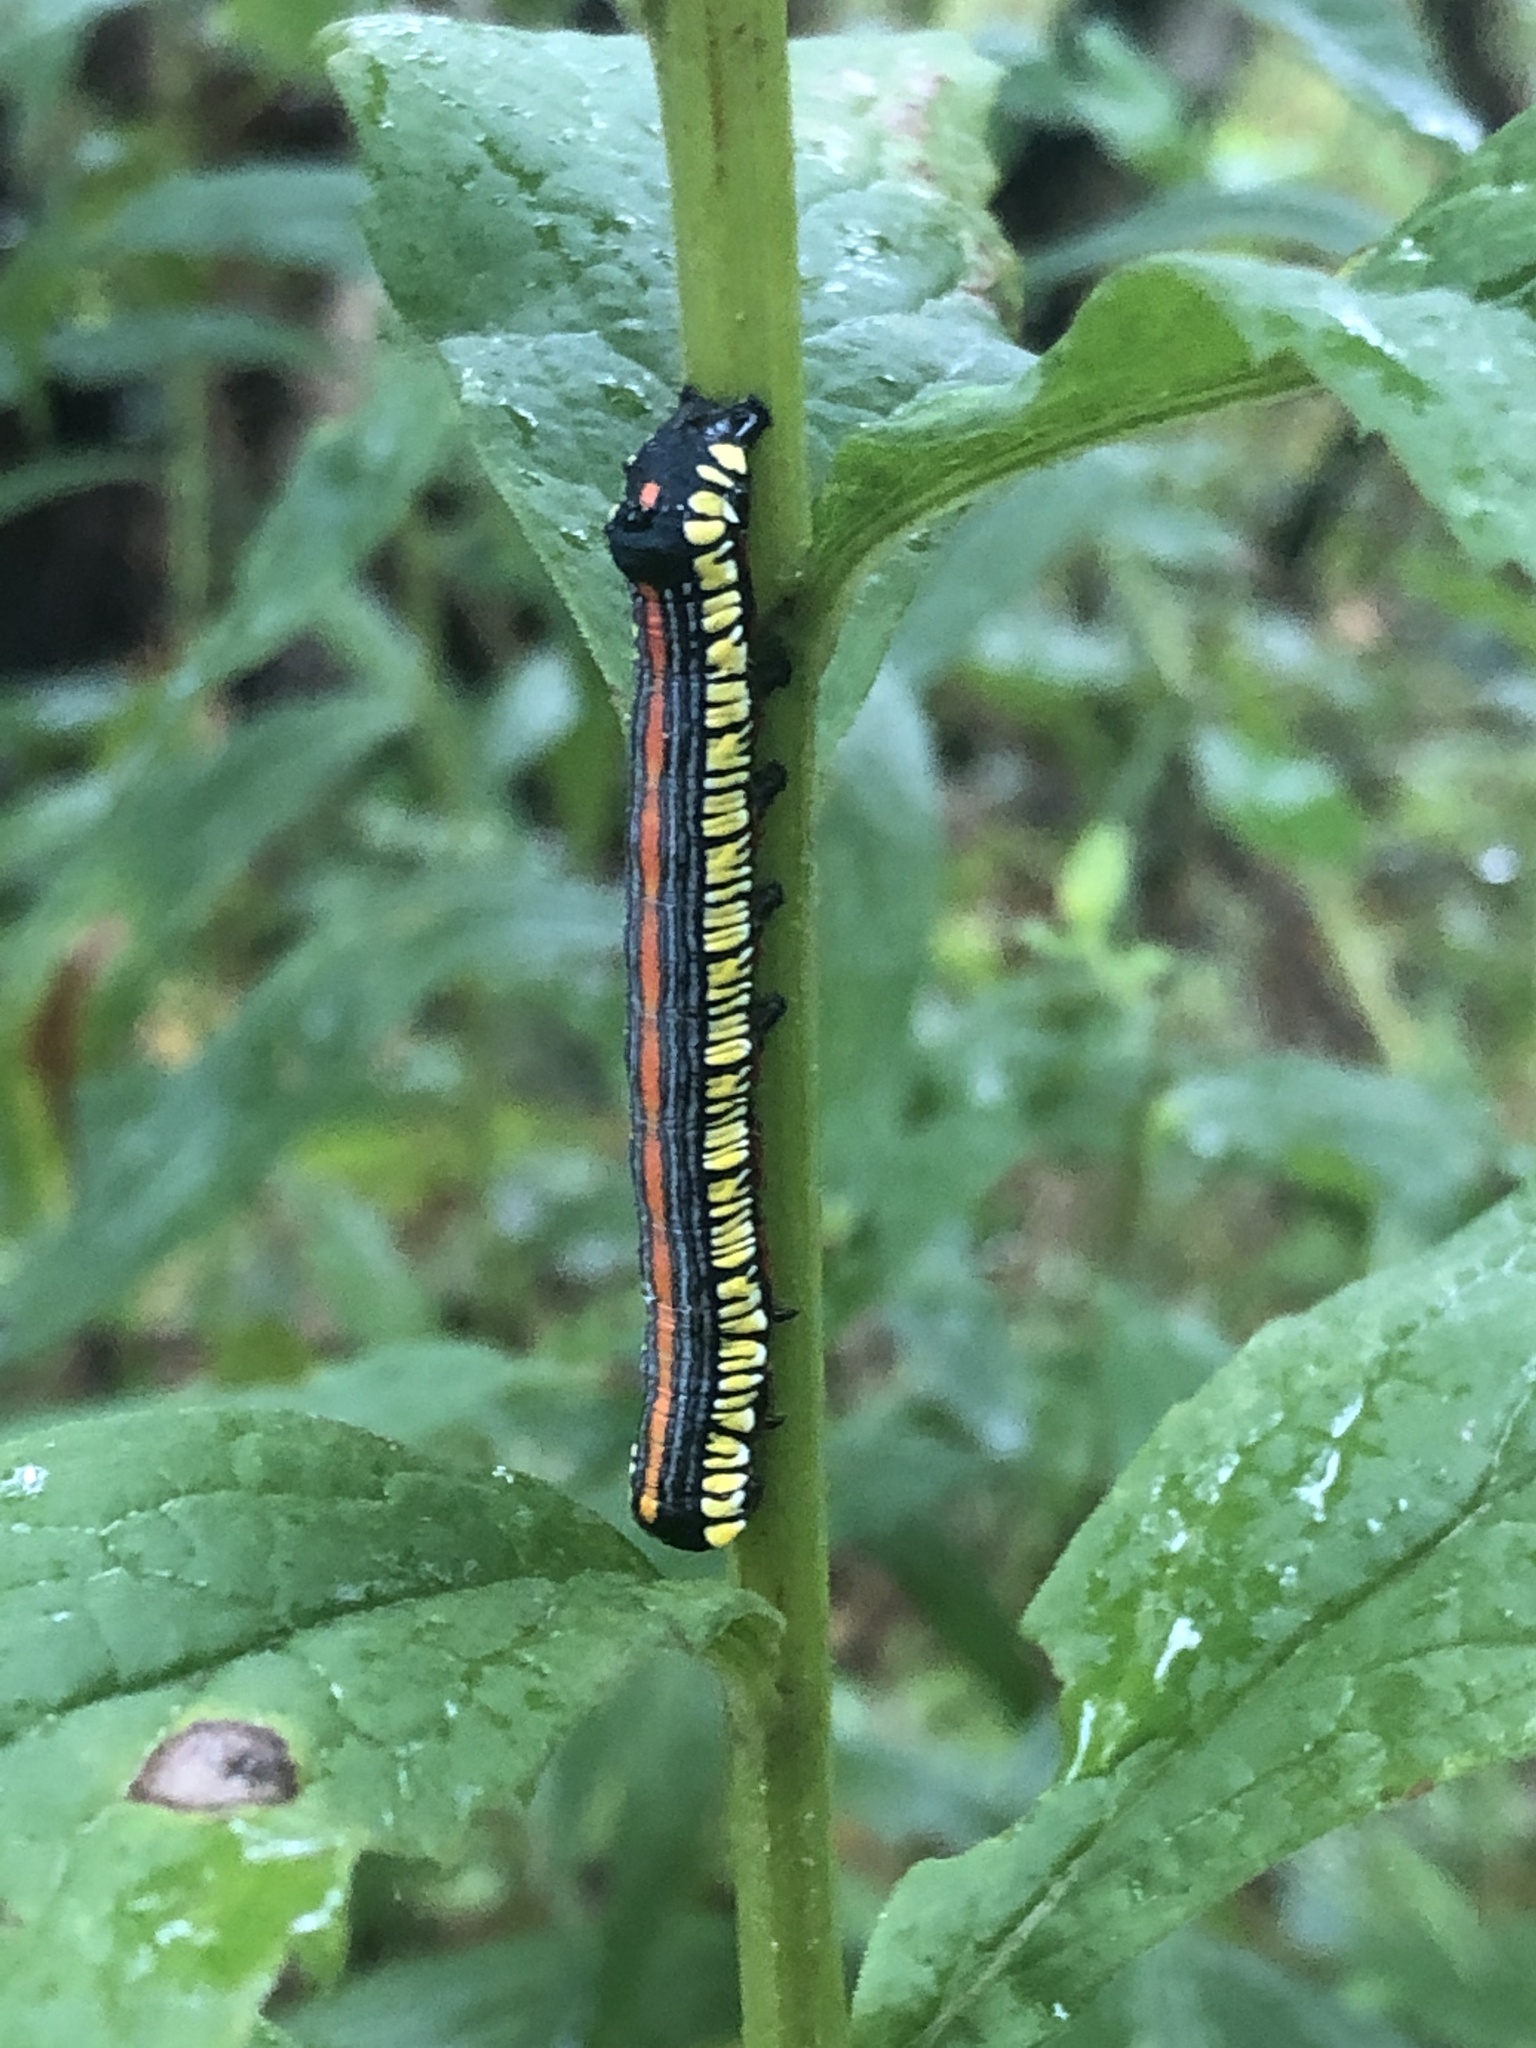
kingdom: Animalia
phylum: Arthropoda
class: Insecta
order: Lepidoptera
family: Noctuidae
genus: Cucullia
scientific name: Cucullia convexipennis
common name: Brown-hooded owlet
